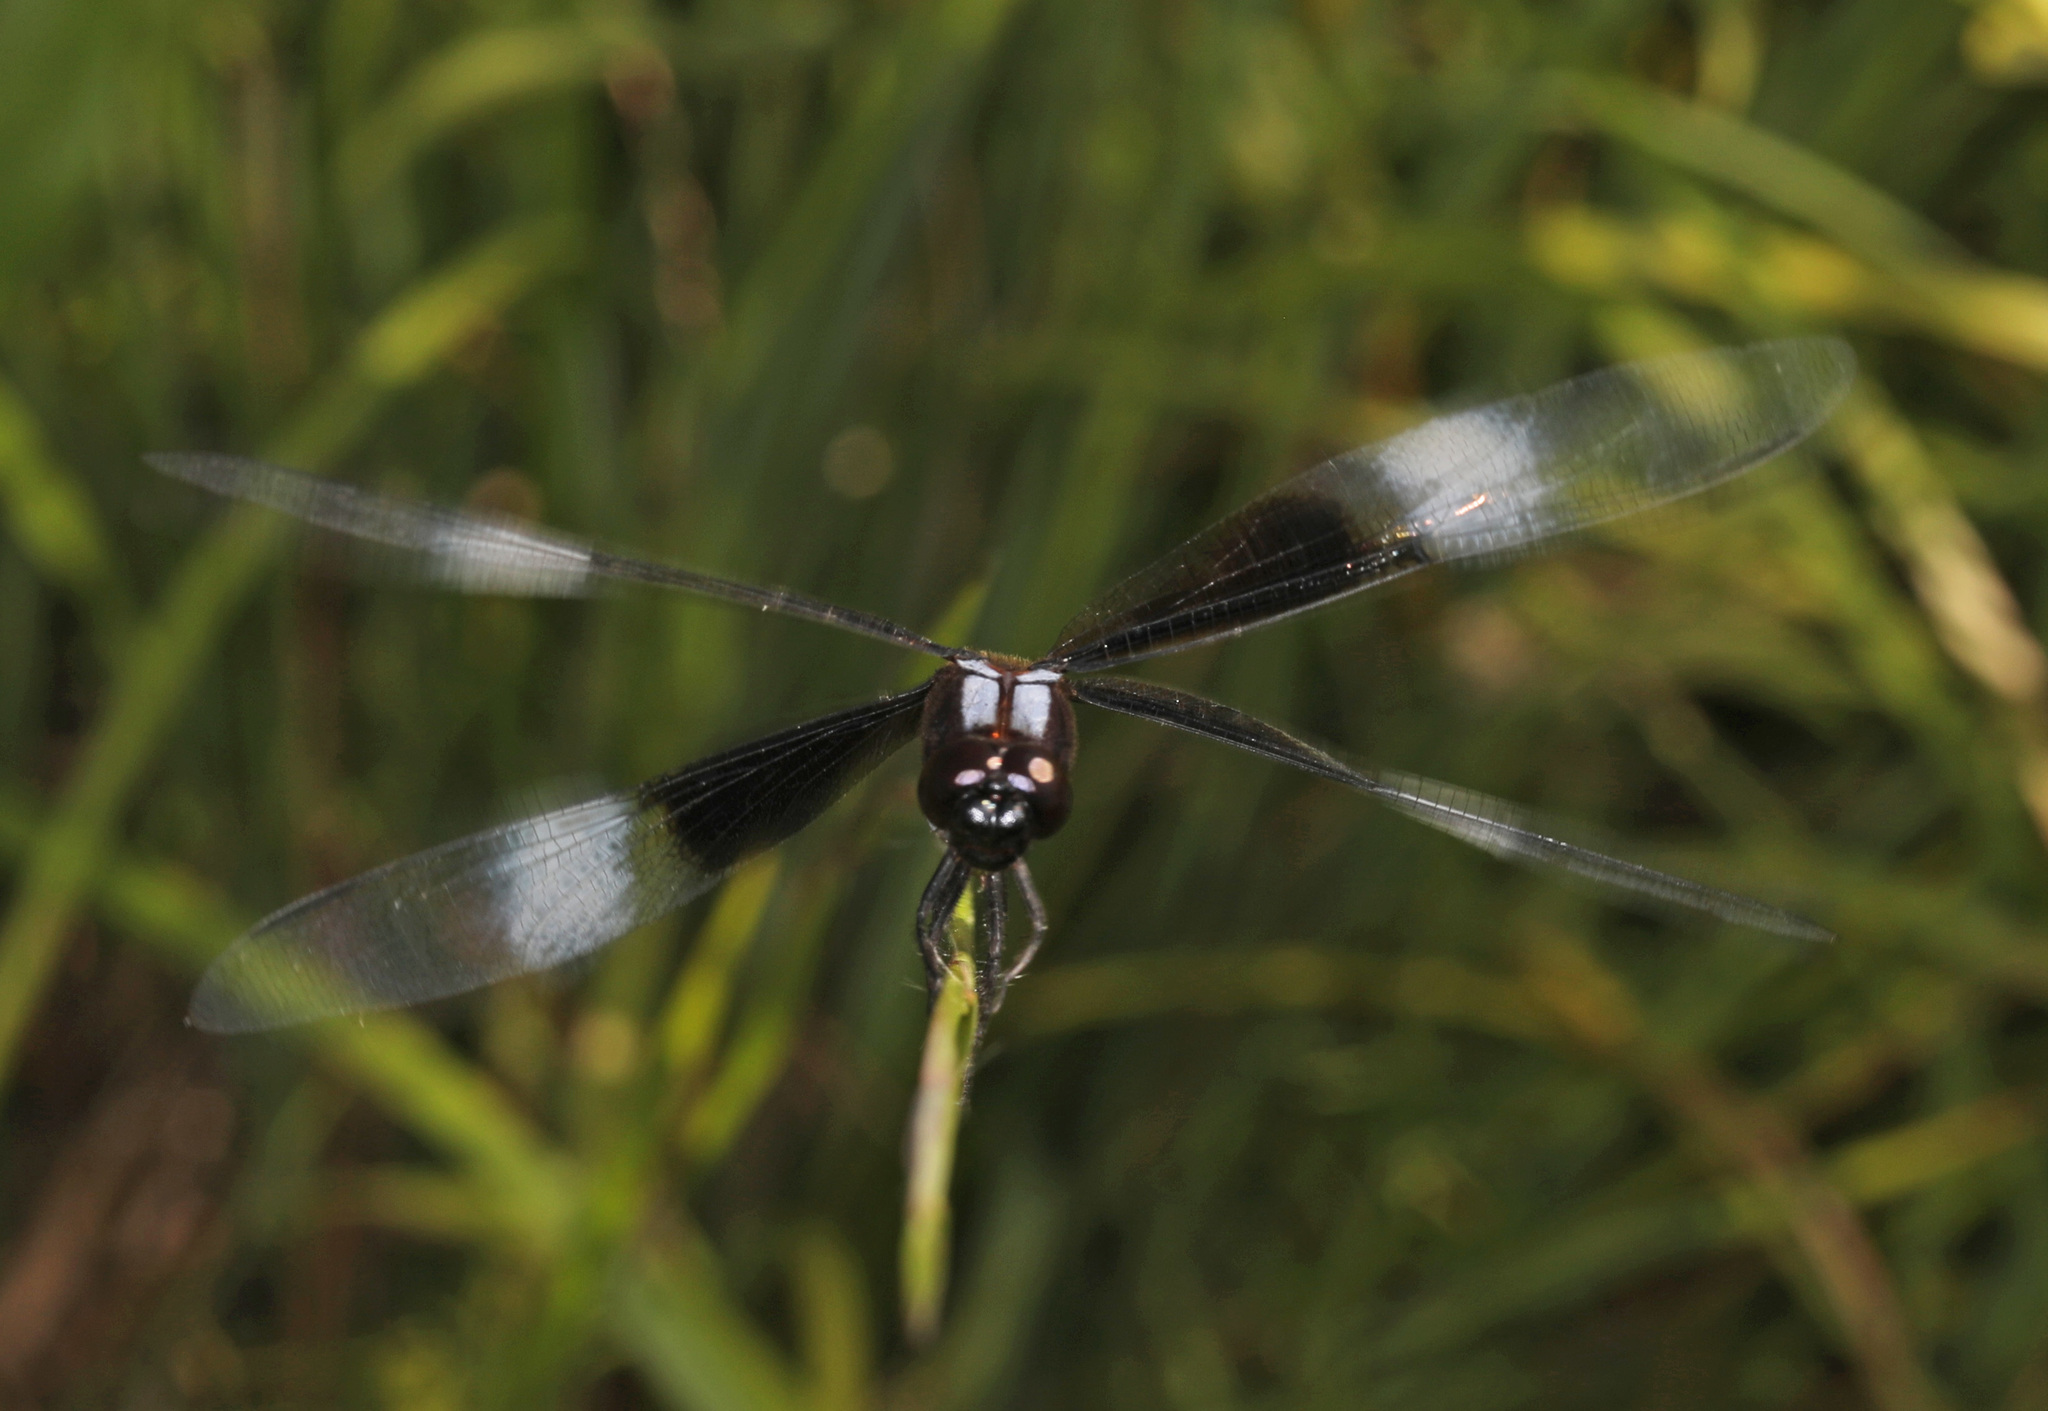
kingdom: Animalia
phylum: Arthropoda
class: Insecta
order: Odonata
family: Libellulidae
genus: Libellula
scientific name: Libellula luctuosa
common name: Widow skimmer
